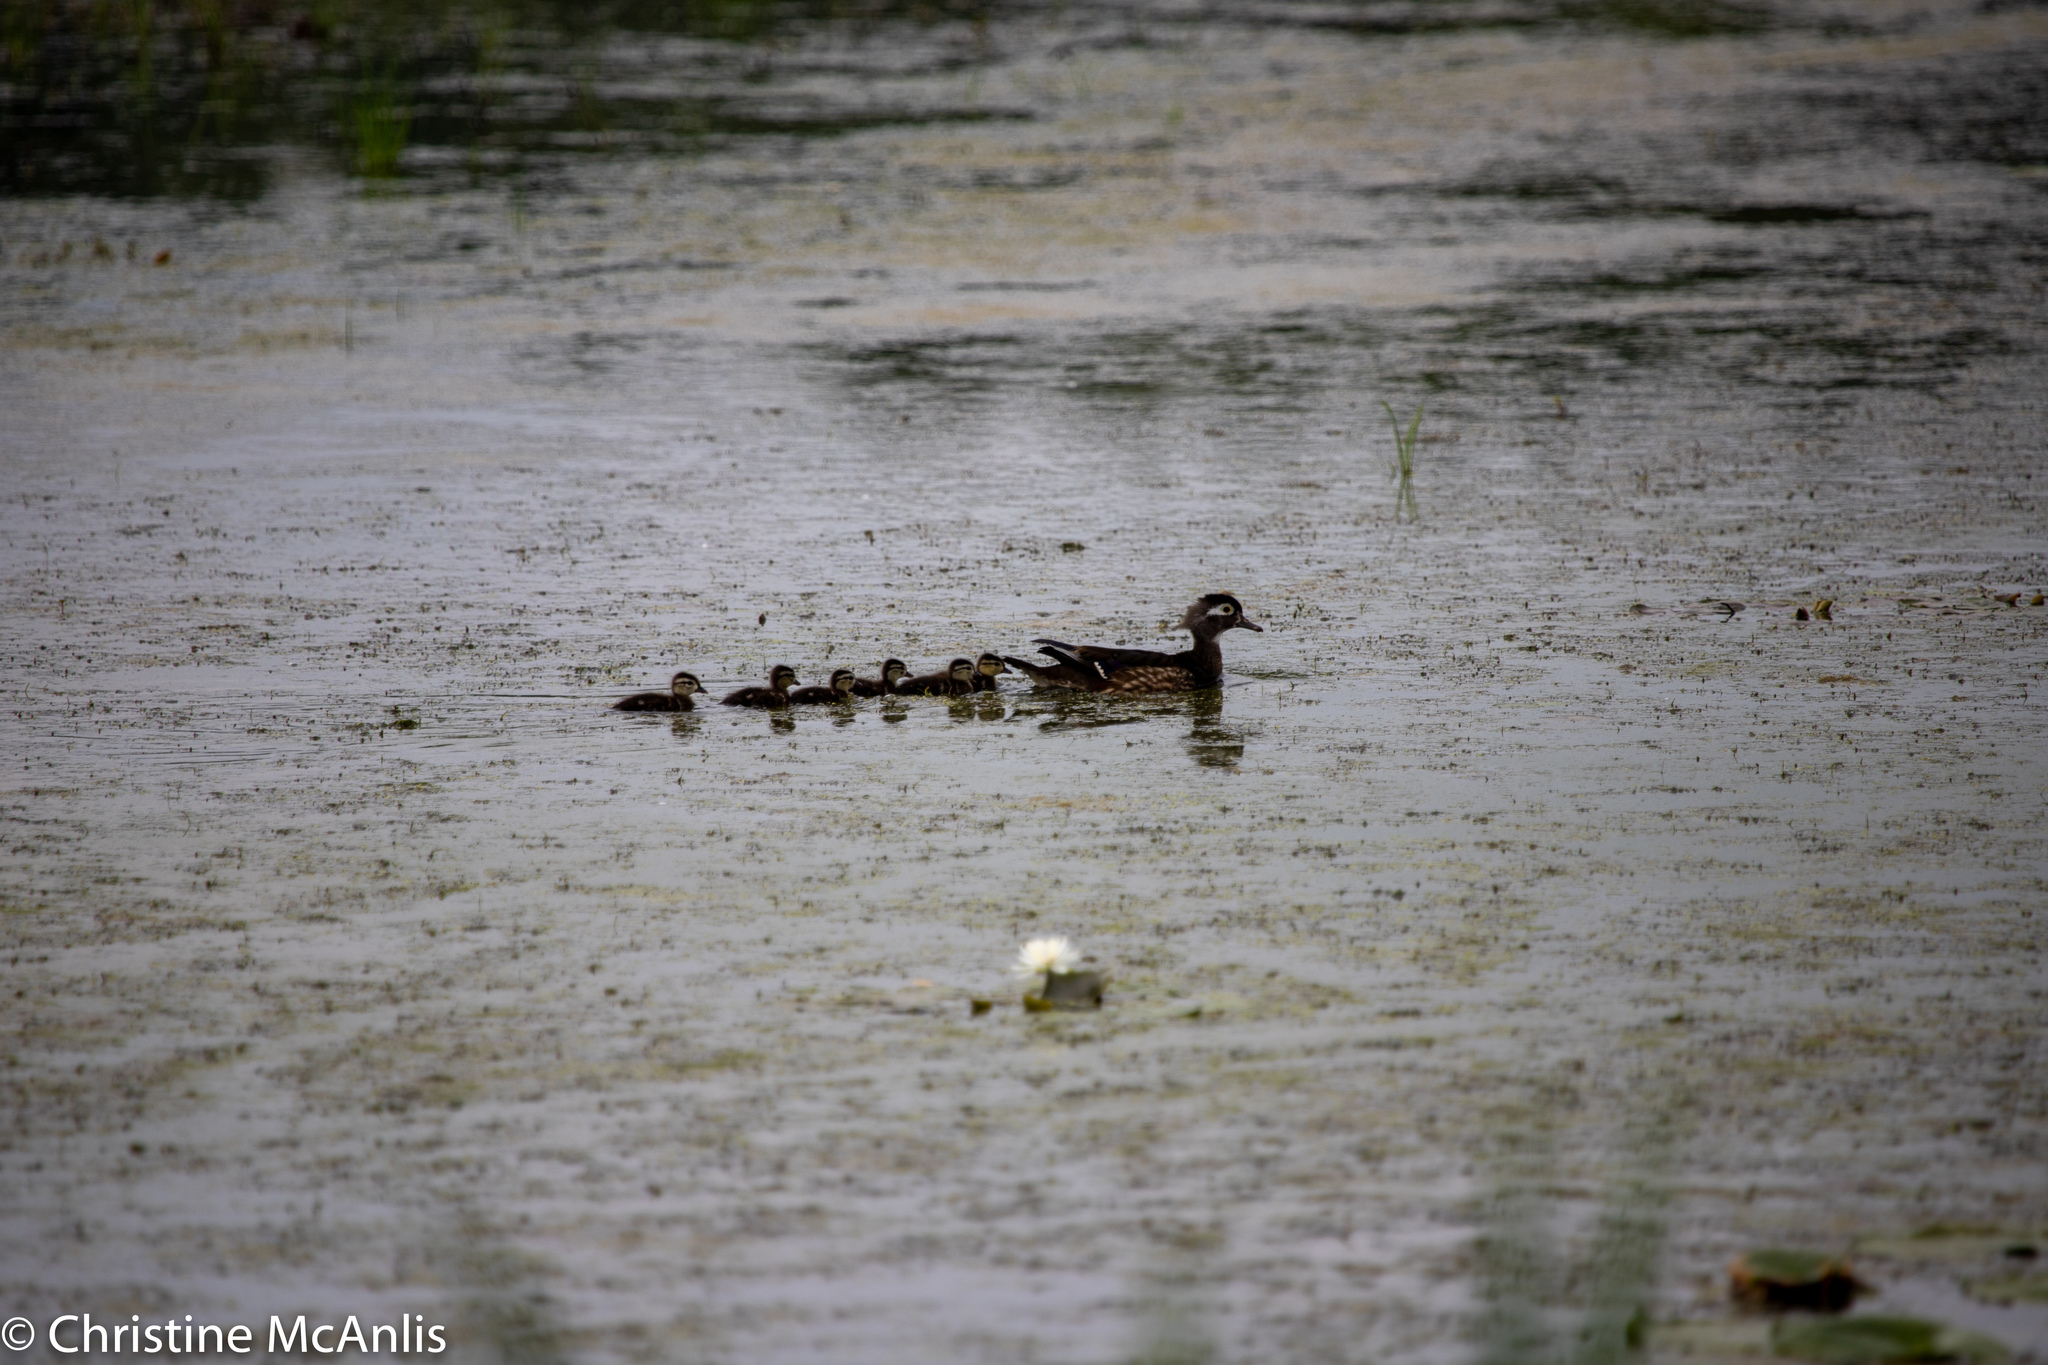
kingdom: Animalia
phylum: Chordata
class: Aves
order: Anseriformes
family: Anatidae
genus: Aix
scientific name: Aix sponsa
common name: Wood duck
